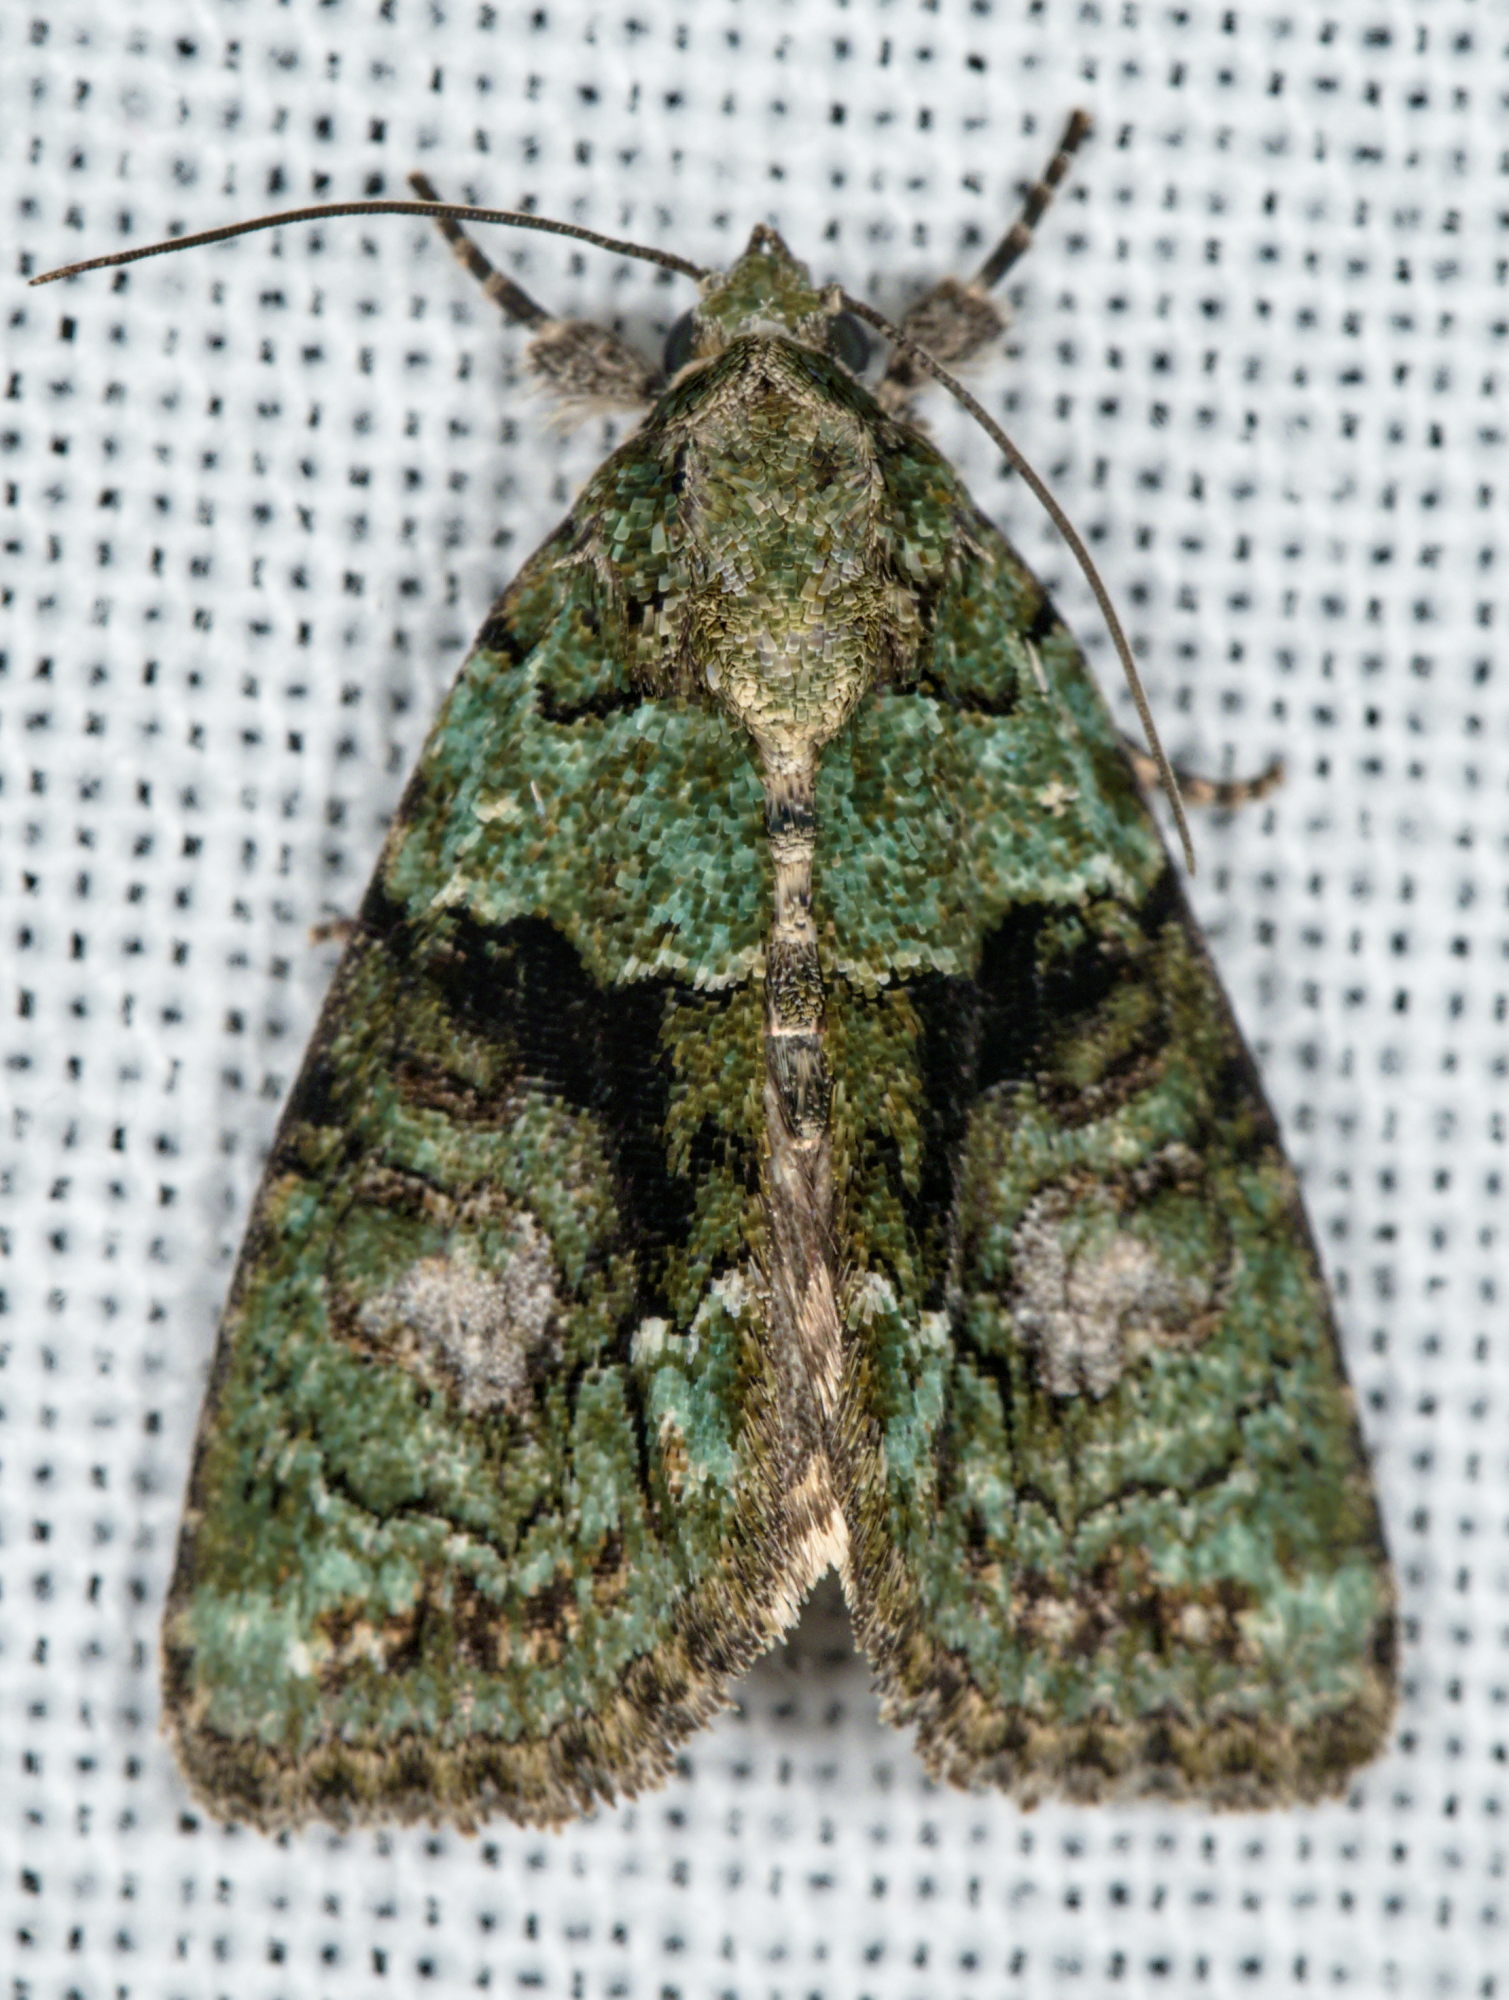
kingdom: Animalia
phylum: Arthropoda
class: Insecta
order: Lepidoptera
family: Noctuidae
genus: Cryphia
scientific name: Cryphia algae
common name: Tree-lichen beauty
